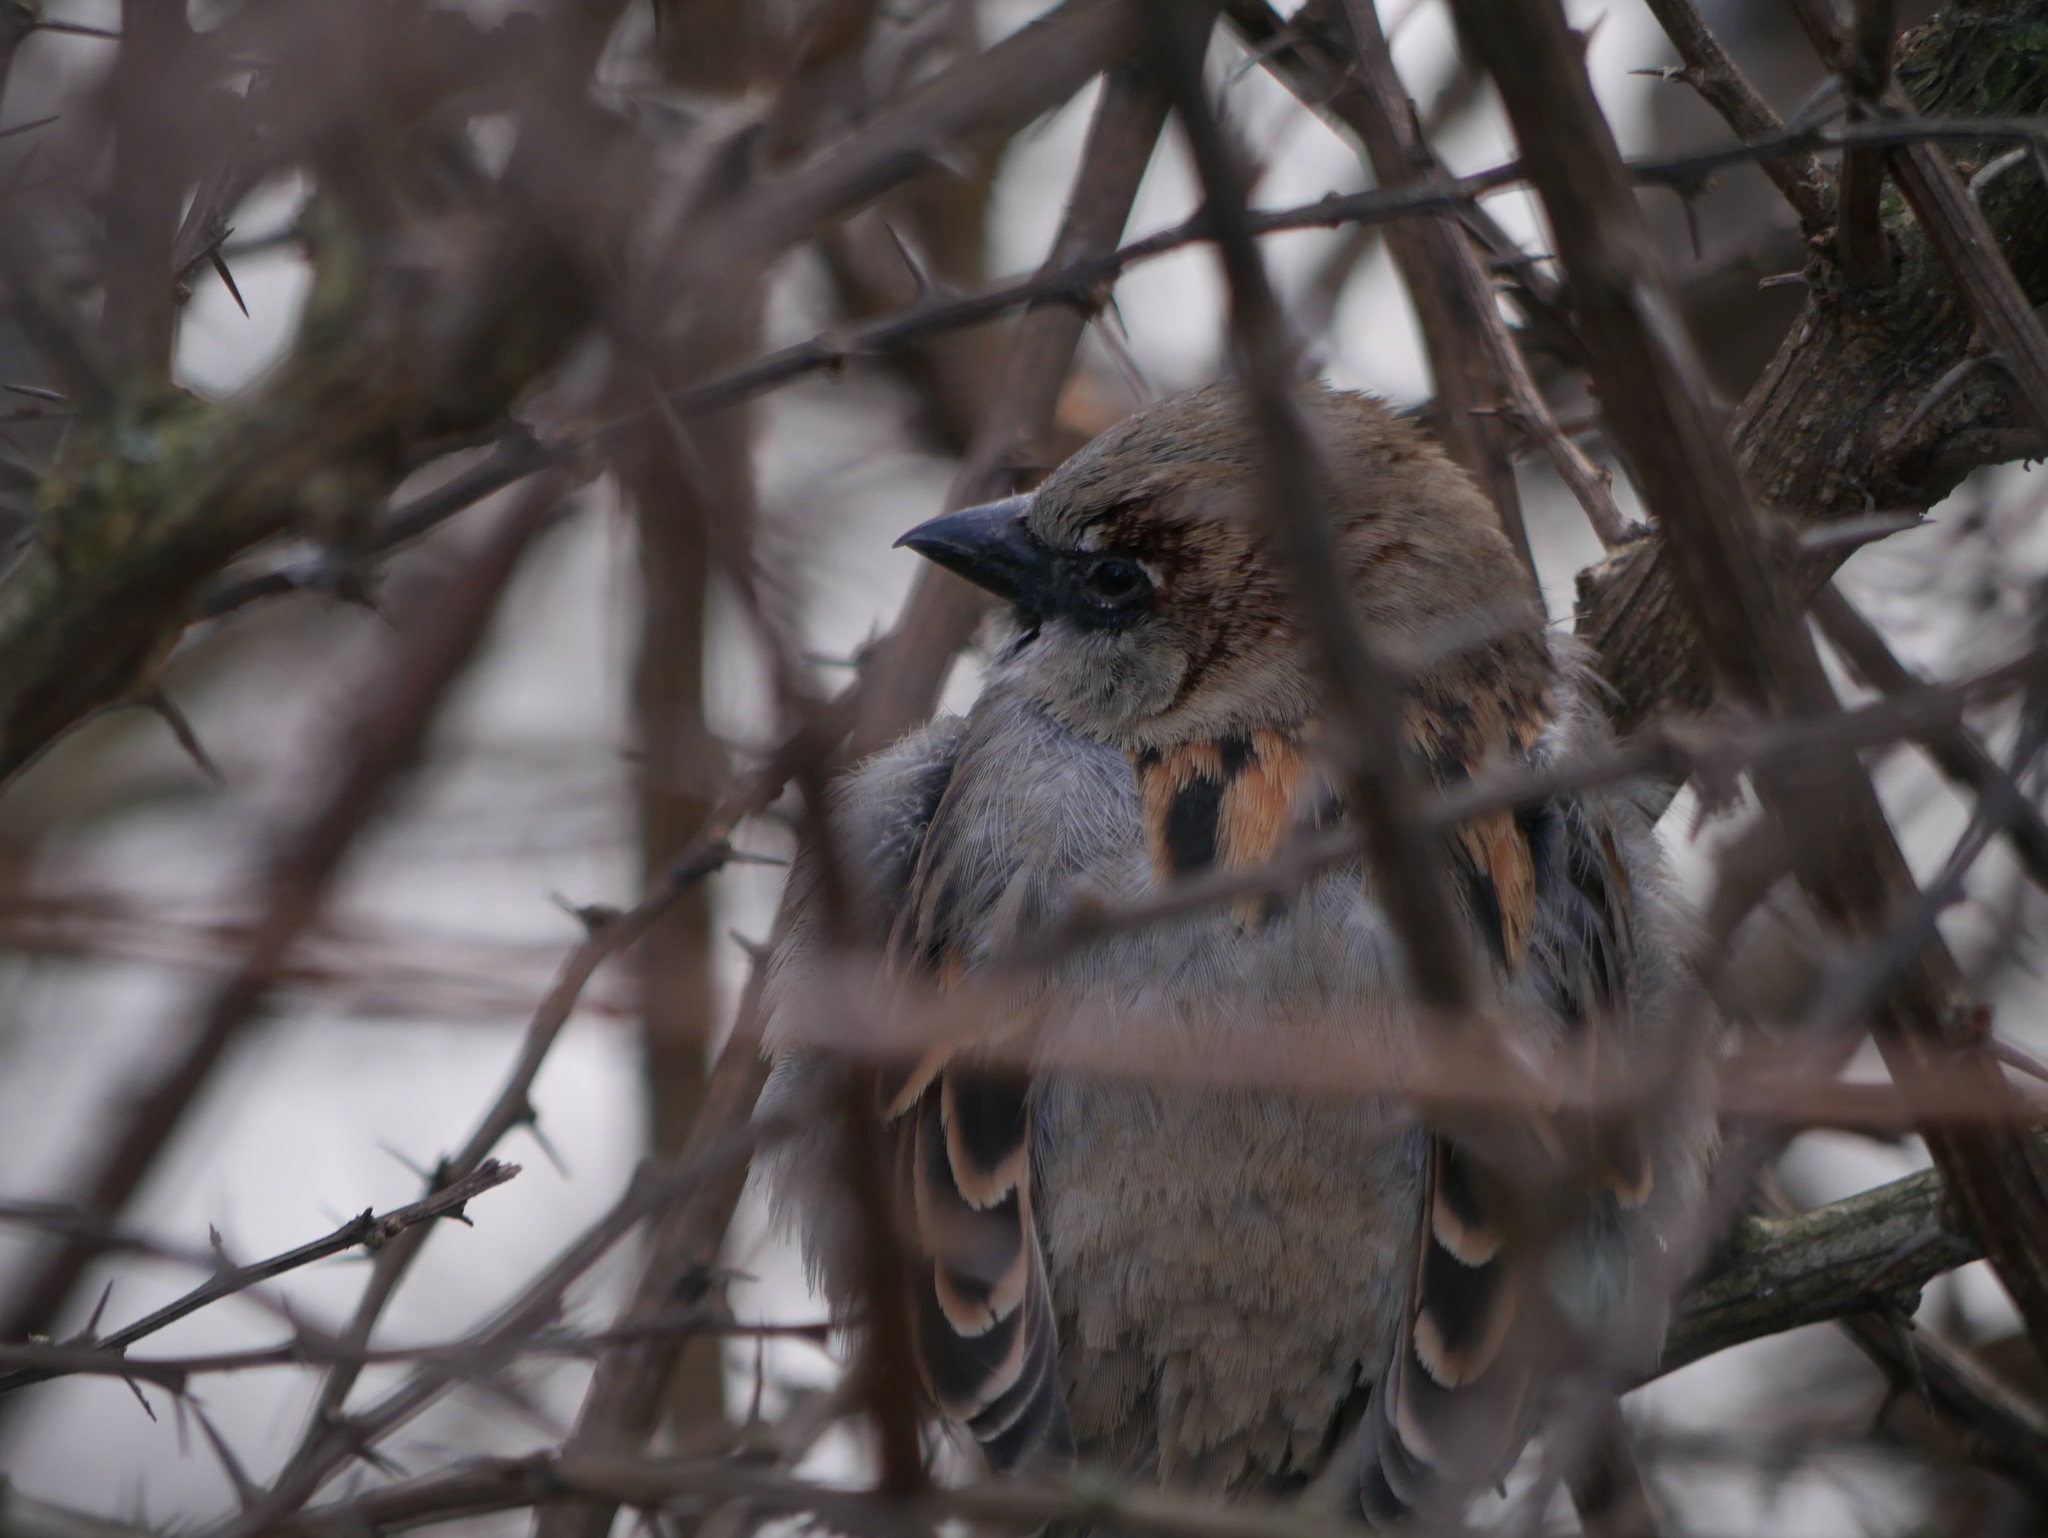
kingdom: Animalia
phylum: Chordata
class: Aves
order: Passeriformes
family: Passeridae
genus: Passer
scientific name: Passer domesticus
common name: House sparrow
